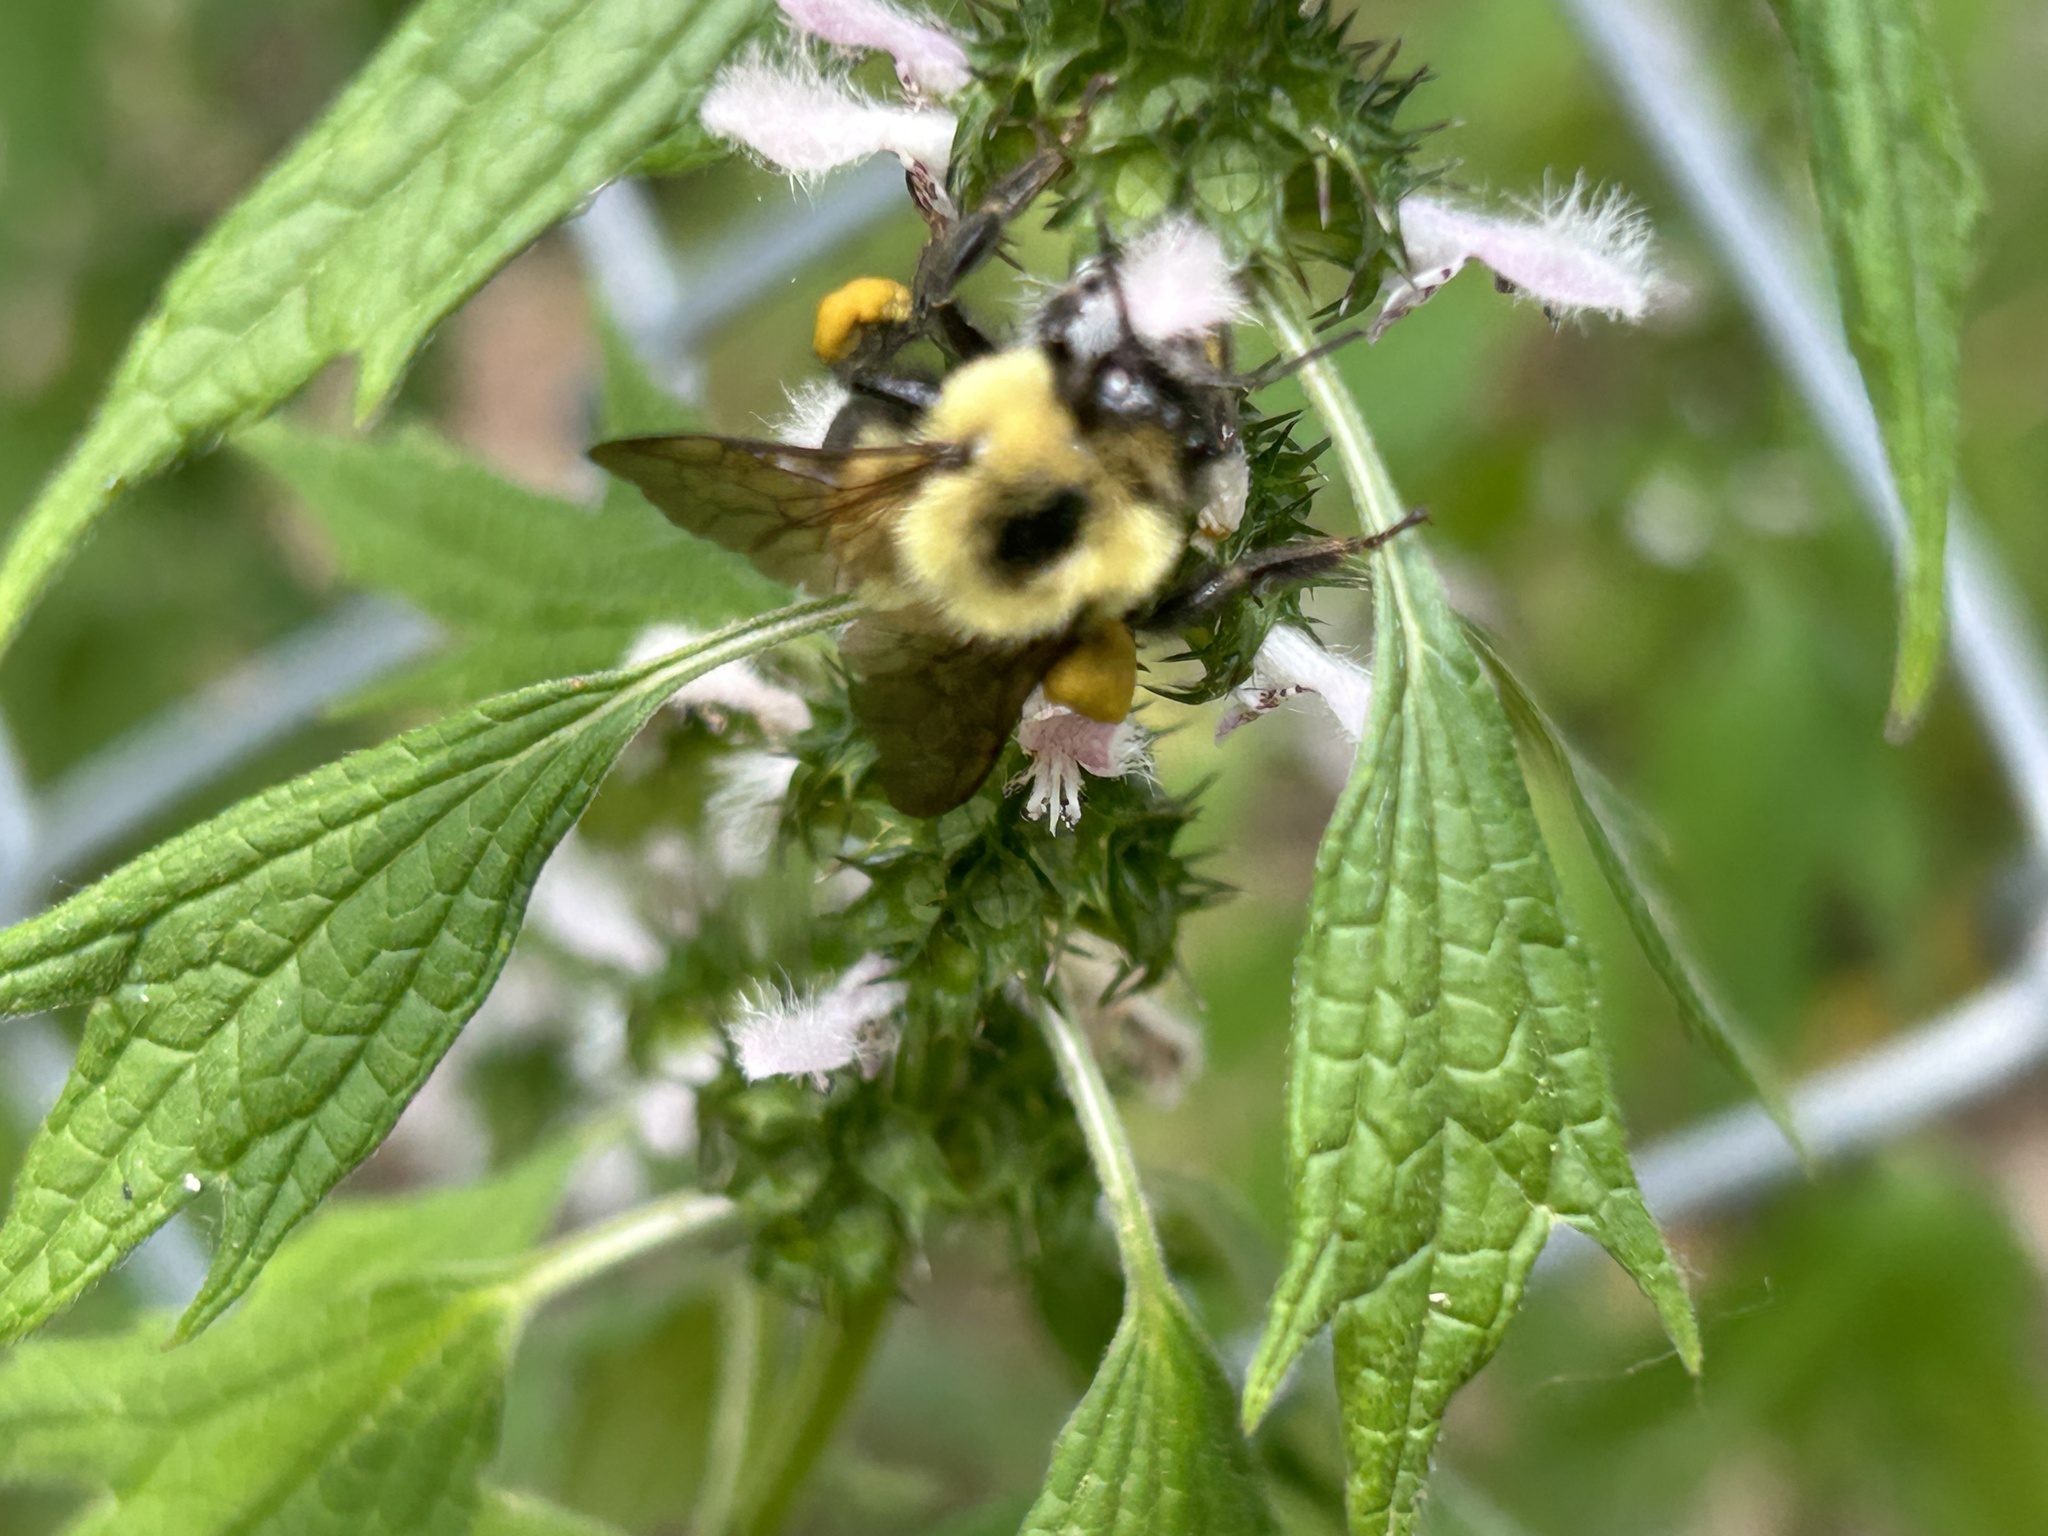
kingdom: Animalia
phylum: Arthropoda
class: Insecta
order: Hymenoptera
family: Apidae
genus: Bombus
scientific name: Bombus bimaculatus
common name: Two-spotted bumble bee
